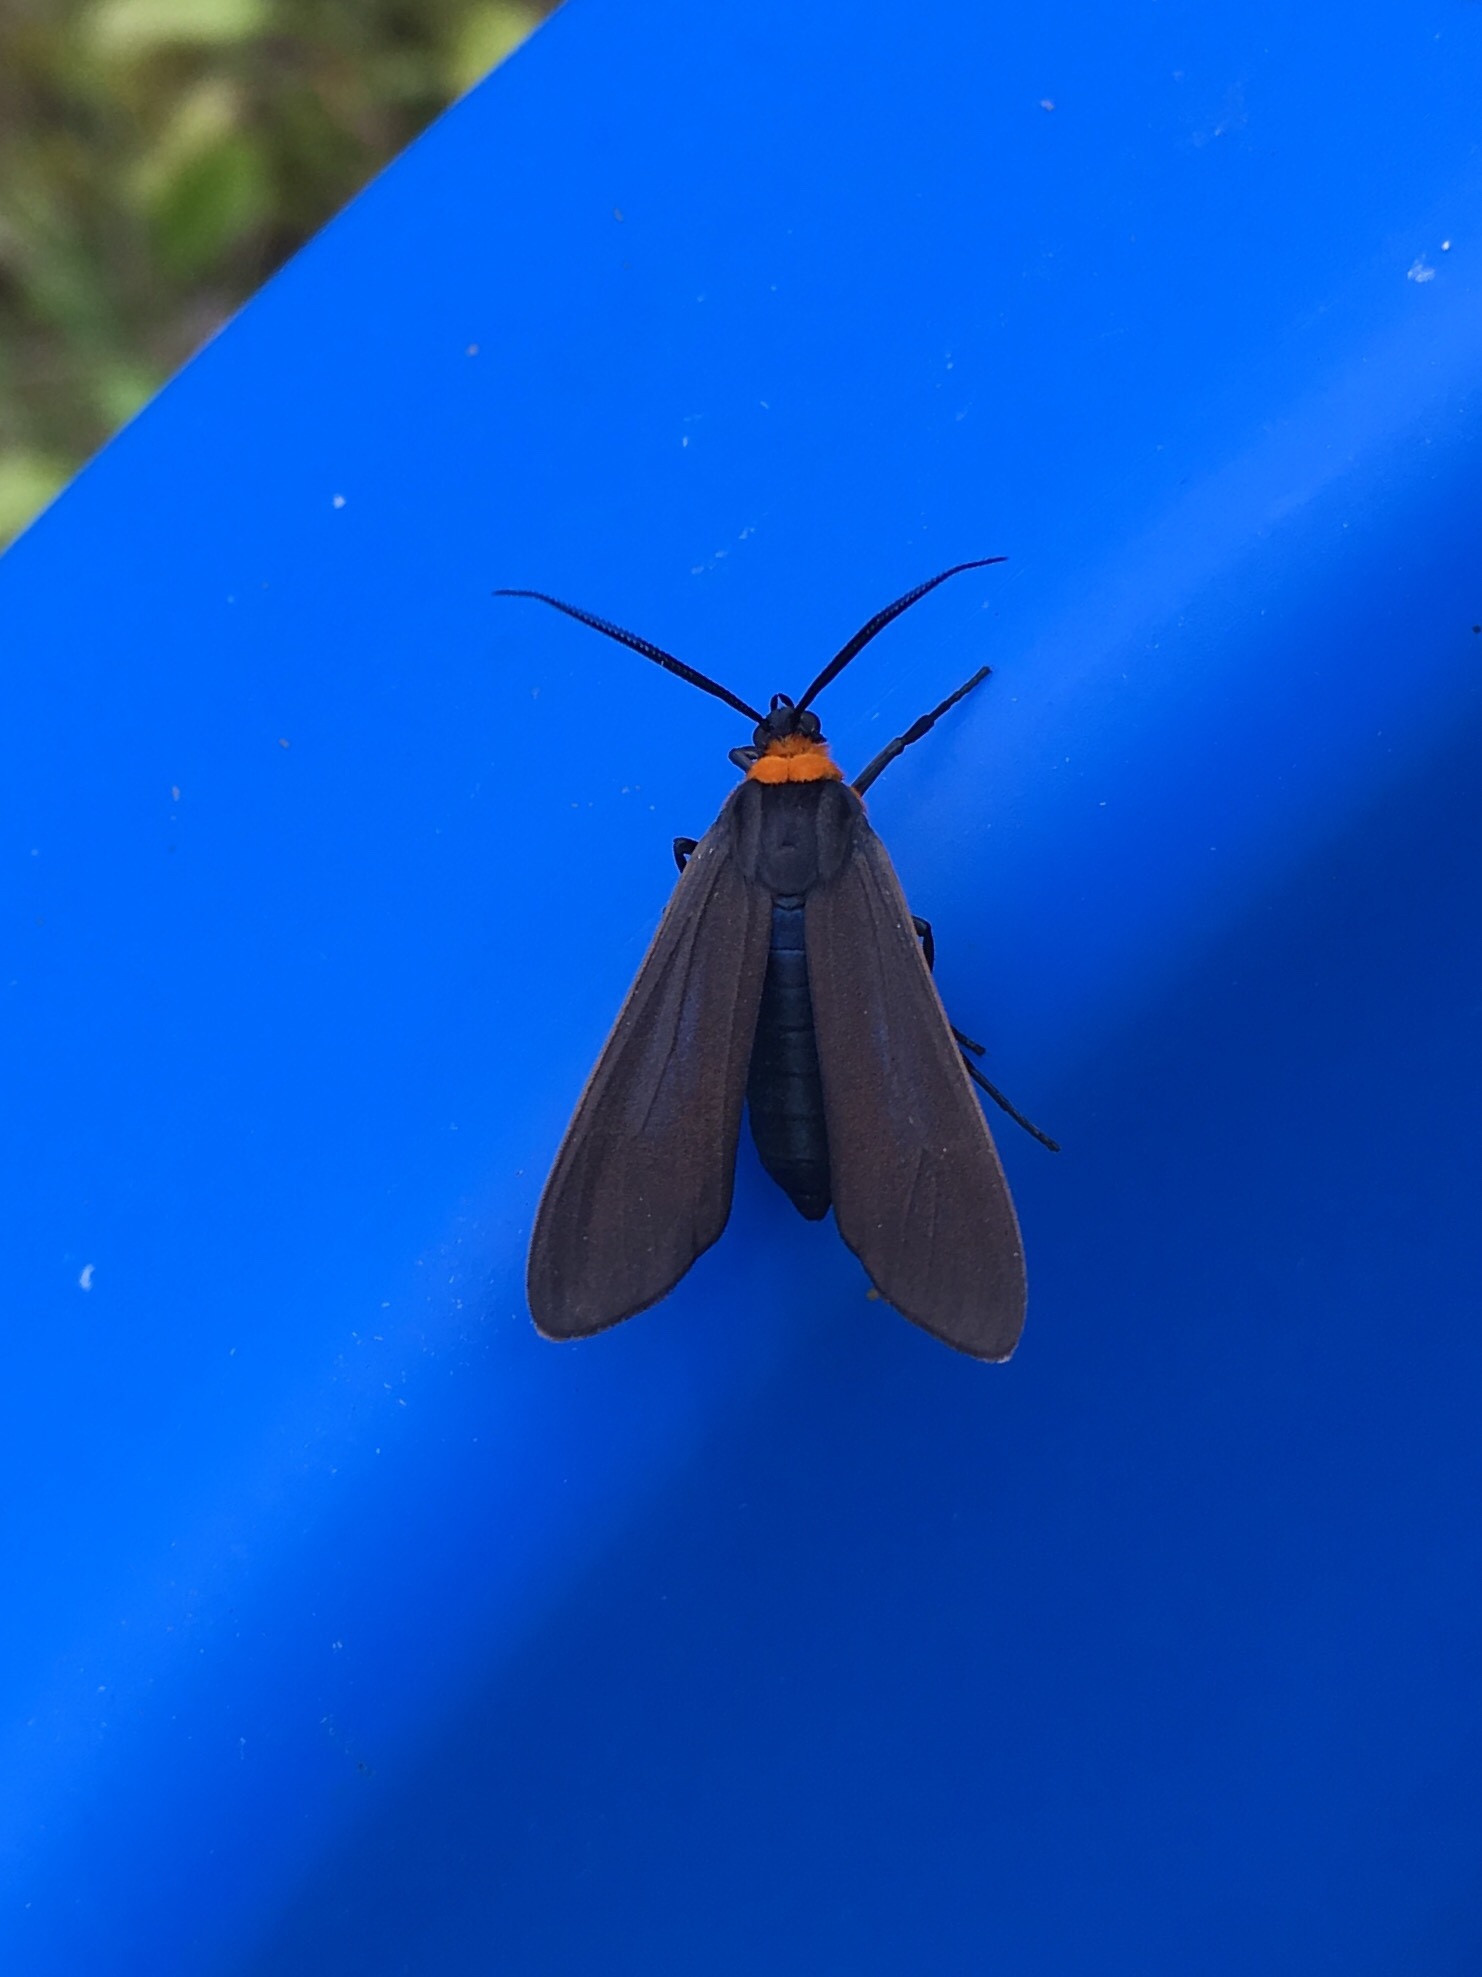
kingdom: Animalia
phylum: Arthropoda
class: Insecta
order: Lepidoptera
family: Erebidae
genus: Cisseps
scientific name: Cisseps fulvicollis
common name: Yellow-collared scape moth
